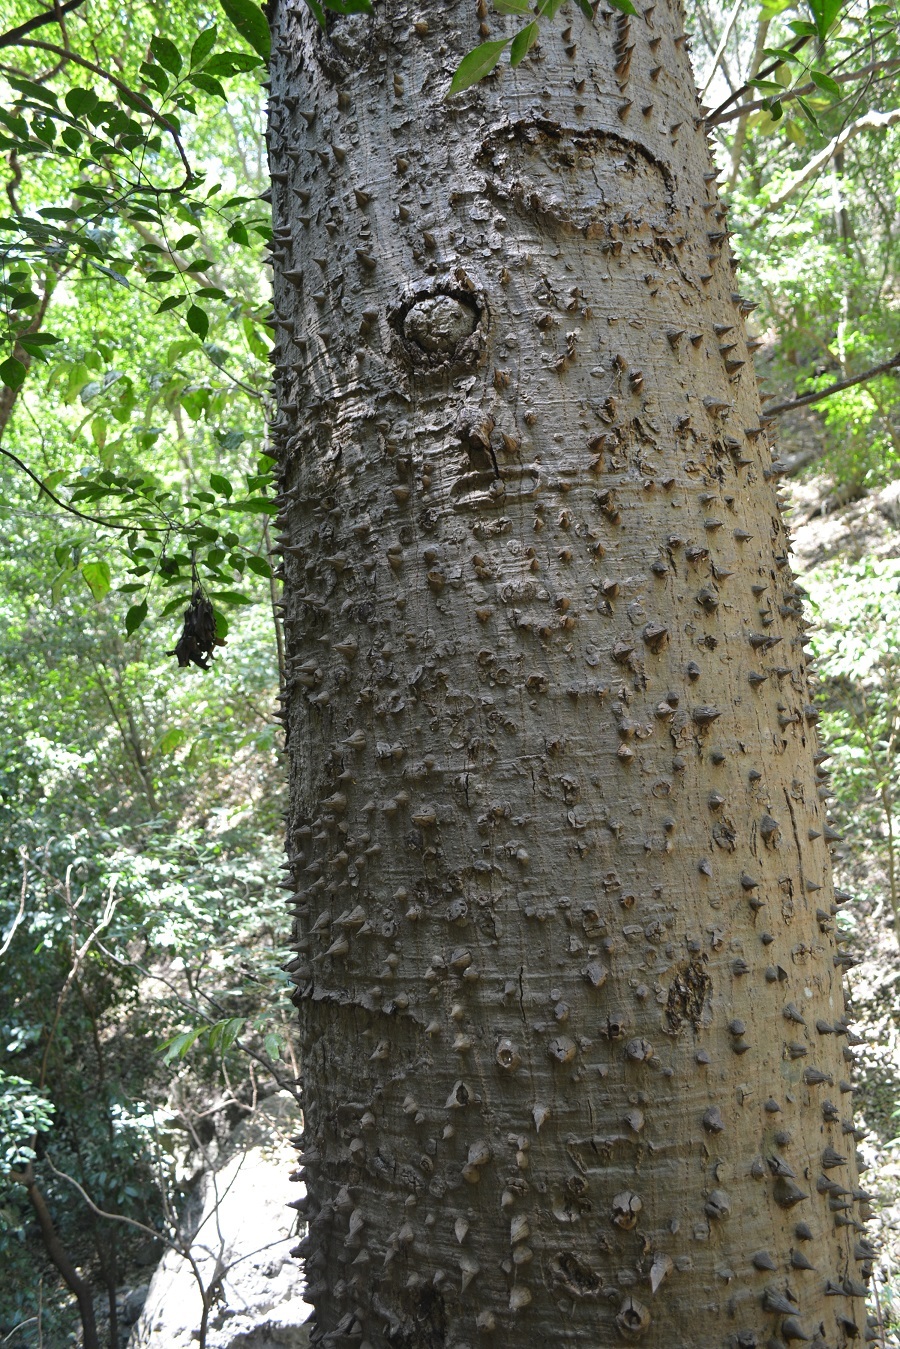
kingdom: Plantae
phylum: Tracheophyta
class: Magnoliopsida
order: Malvales
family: Malvaceae
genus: Ceiba
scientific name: Ceiba pentandra
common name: Kapok
